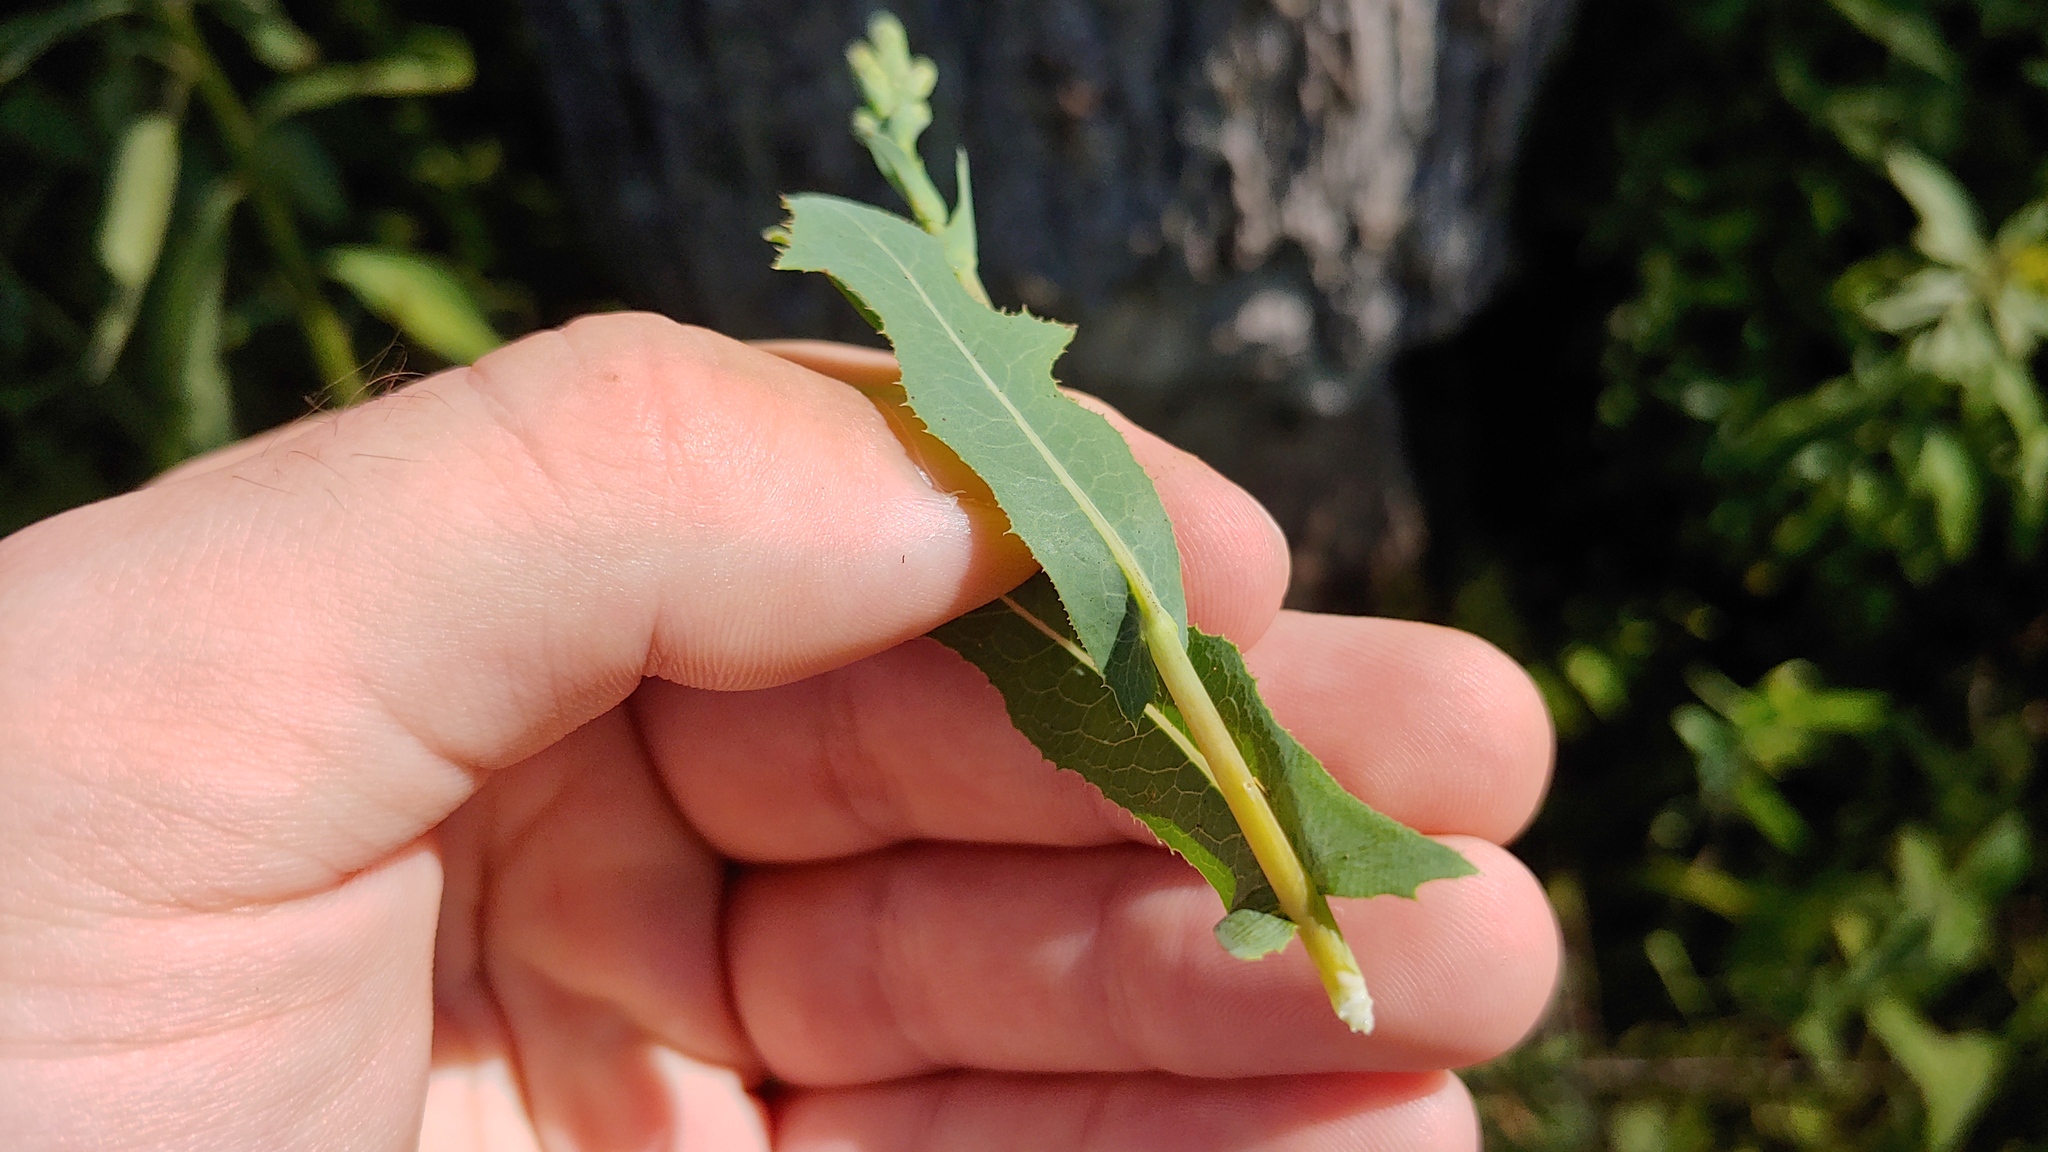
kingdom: Plantae
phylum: Tracheophyta
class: Magnoliopsida
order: Asterales
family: Asteraceae
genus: Lactuca
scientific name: Lactuca serriola
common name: Prickly lettuce
